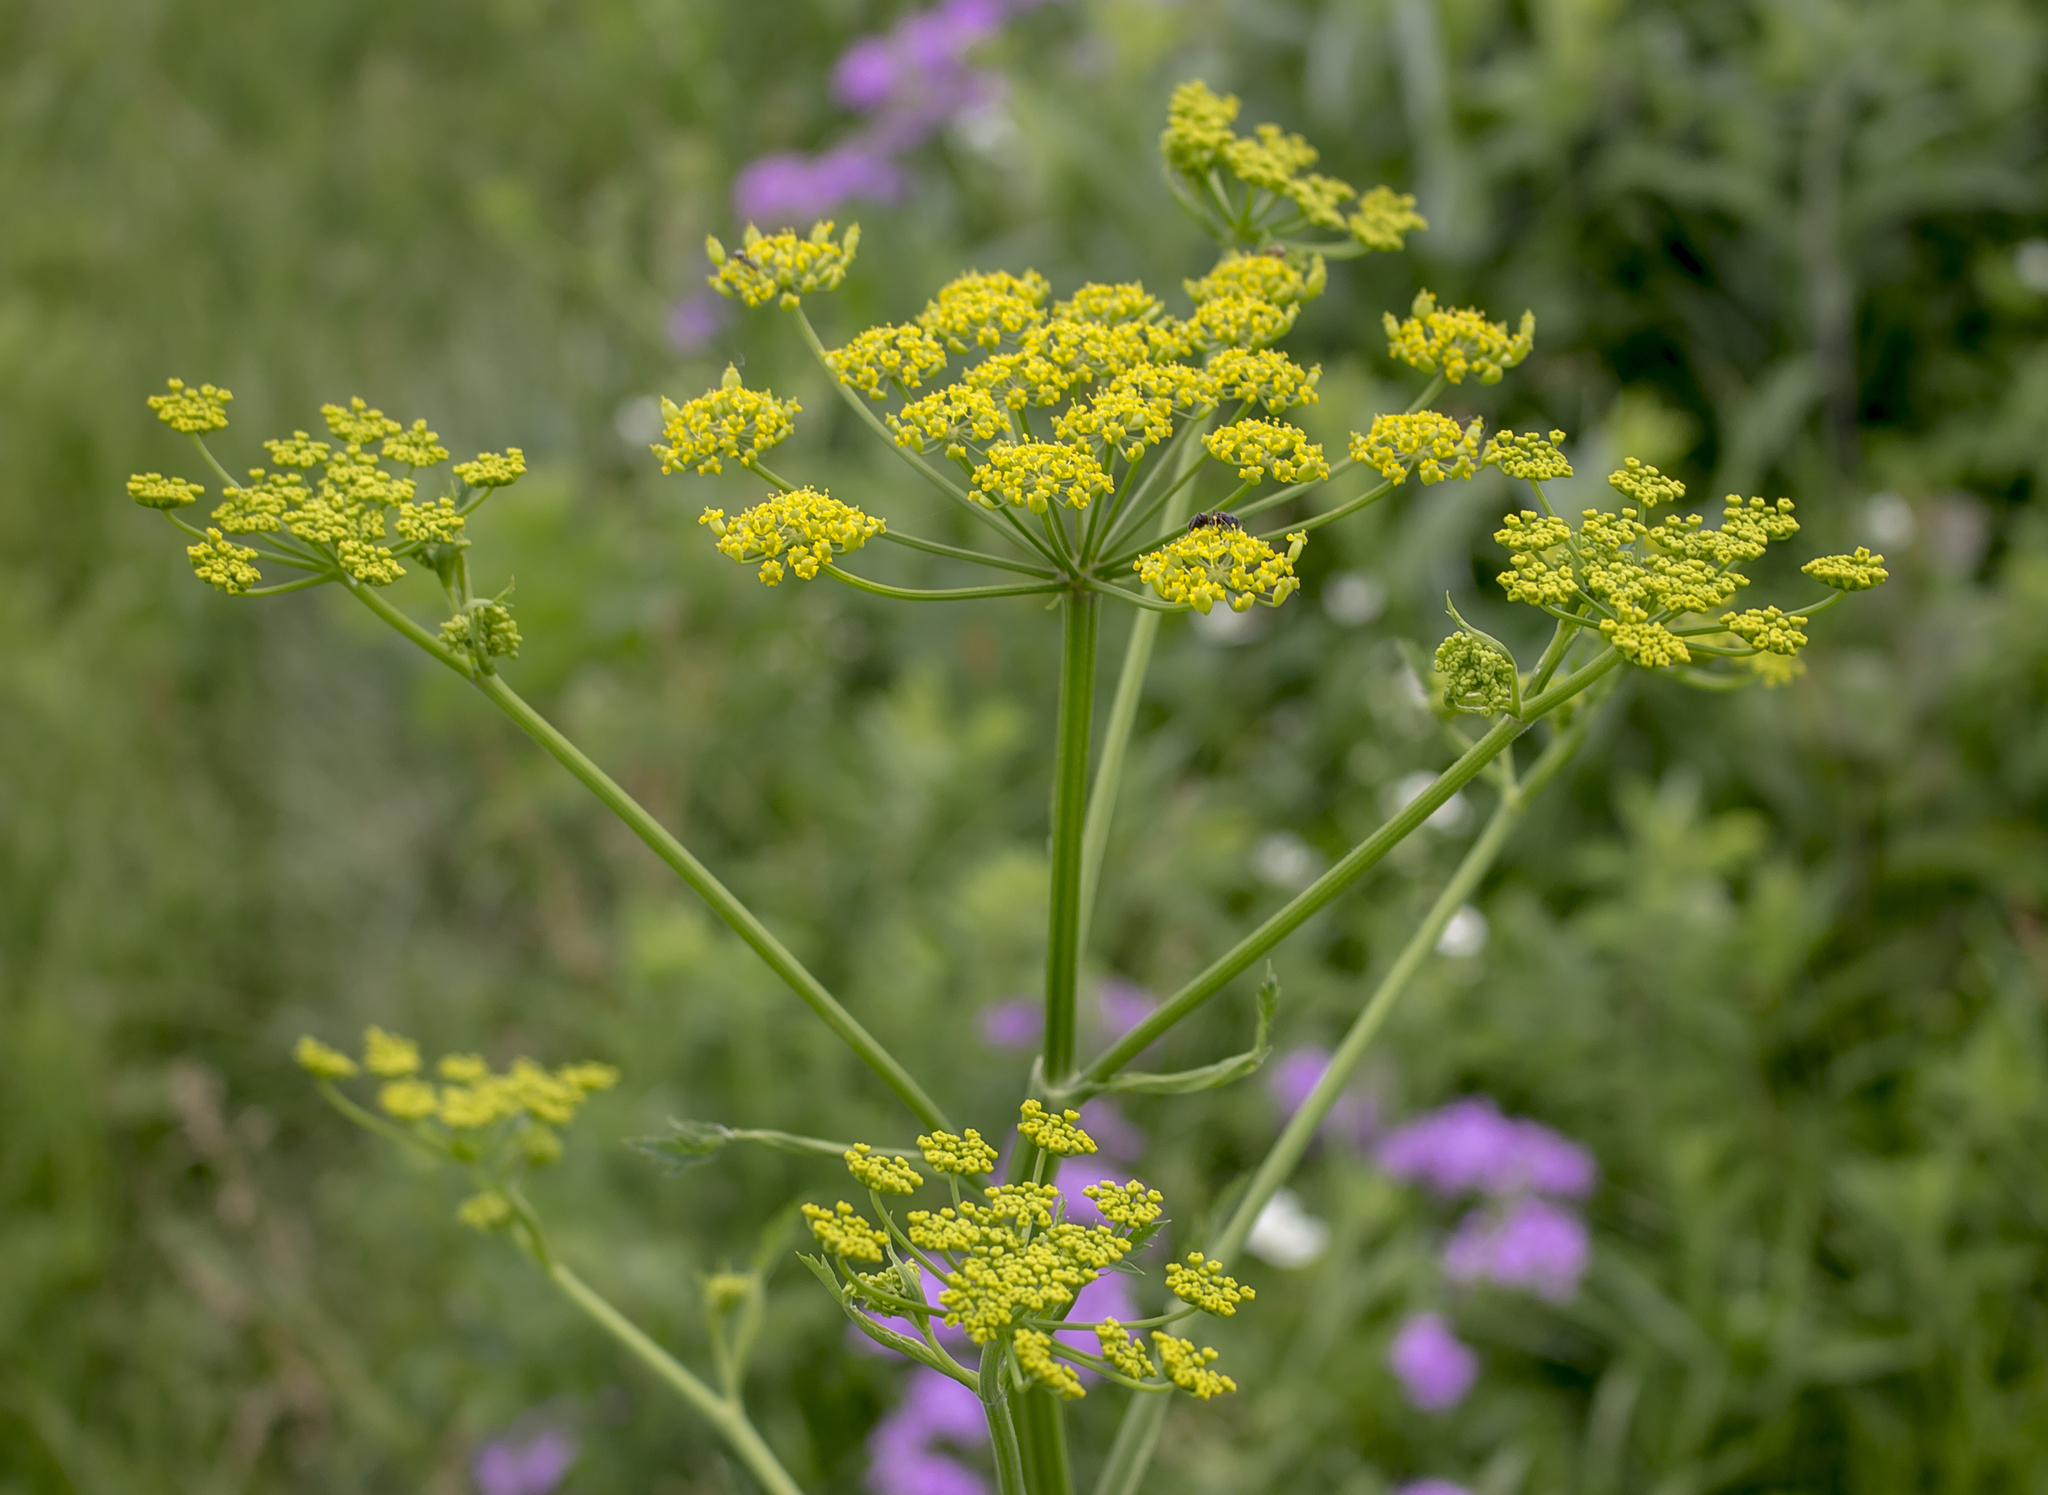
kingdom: Plantae
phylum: Tracheophyta
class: Magnoliopsida
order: Apiales
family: Apiaceae
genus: Pastinaca
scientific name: Pastinaca sativa
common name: Wild parsnip
